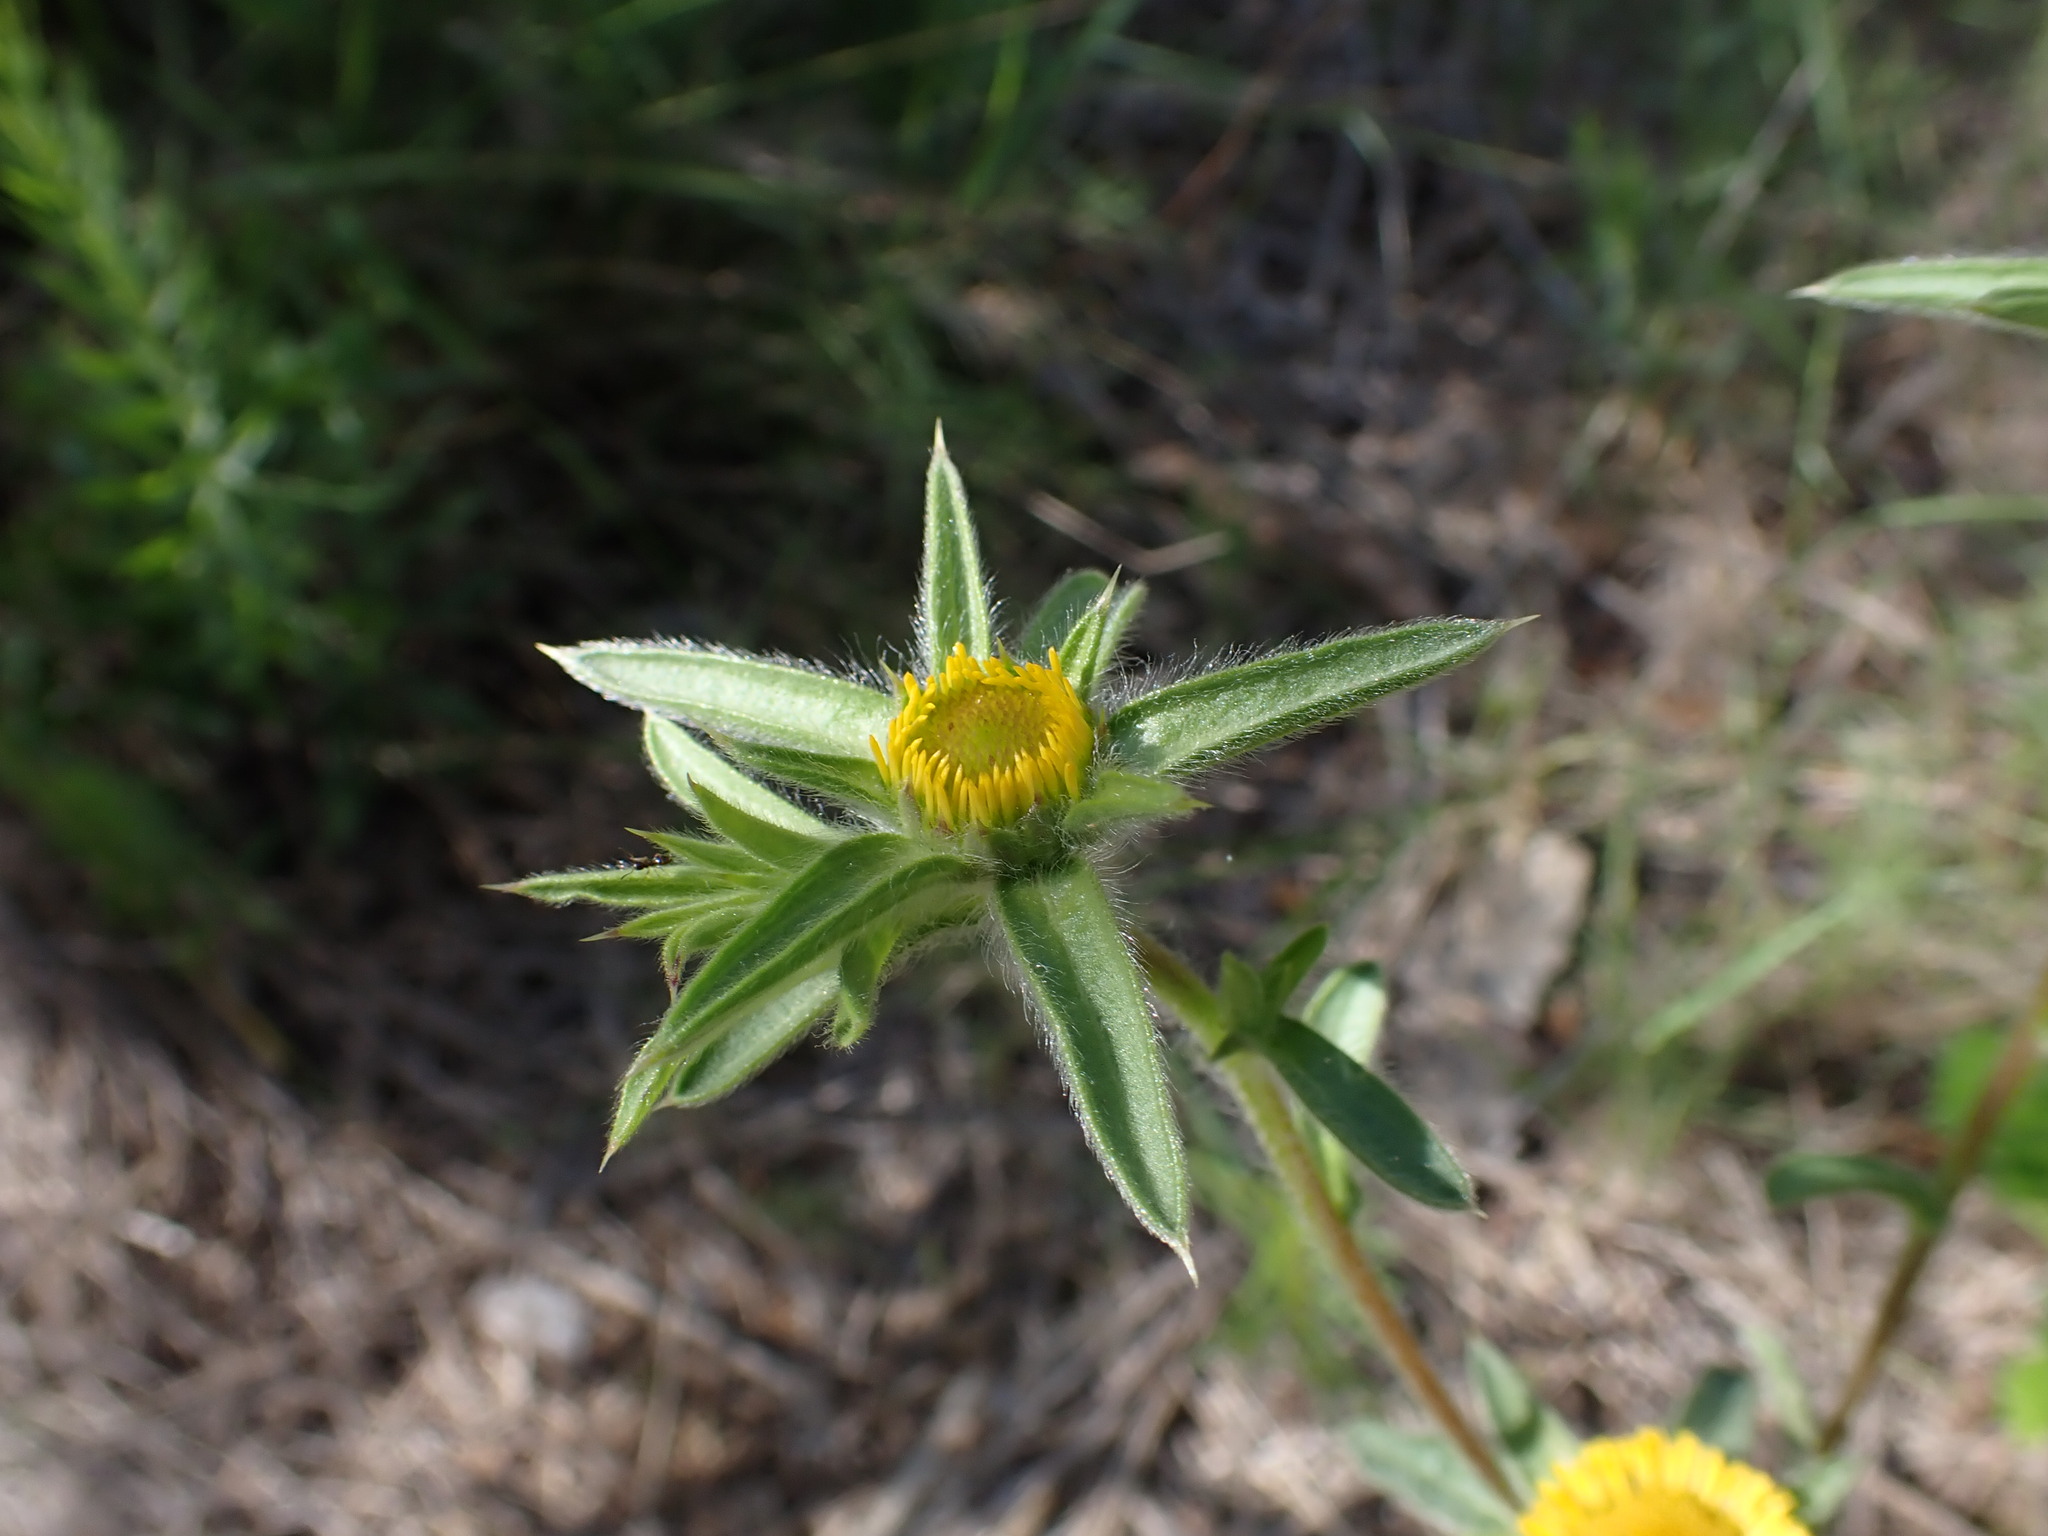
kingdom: Plantae
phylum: Tracheophyta
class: Magnoliopsida
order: Asterales
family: Asteraceae
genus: Pallenis
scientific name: Pallenis spinosa
